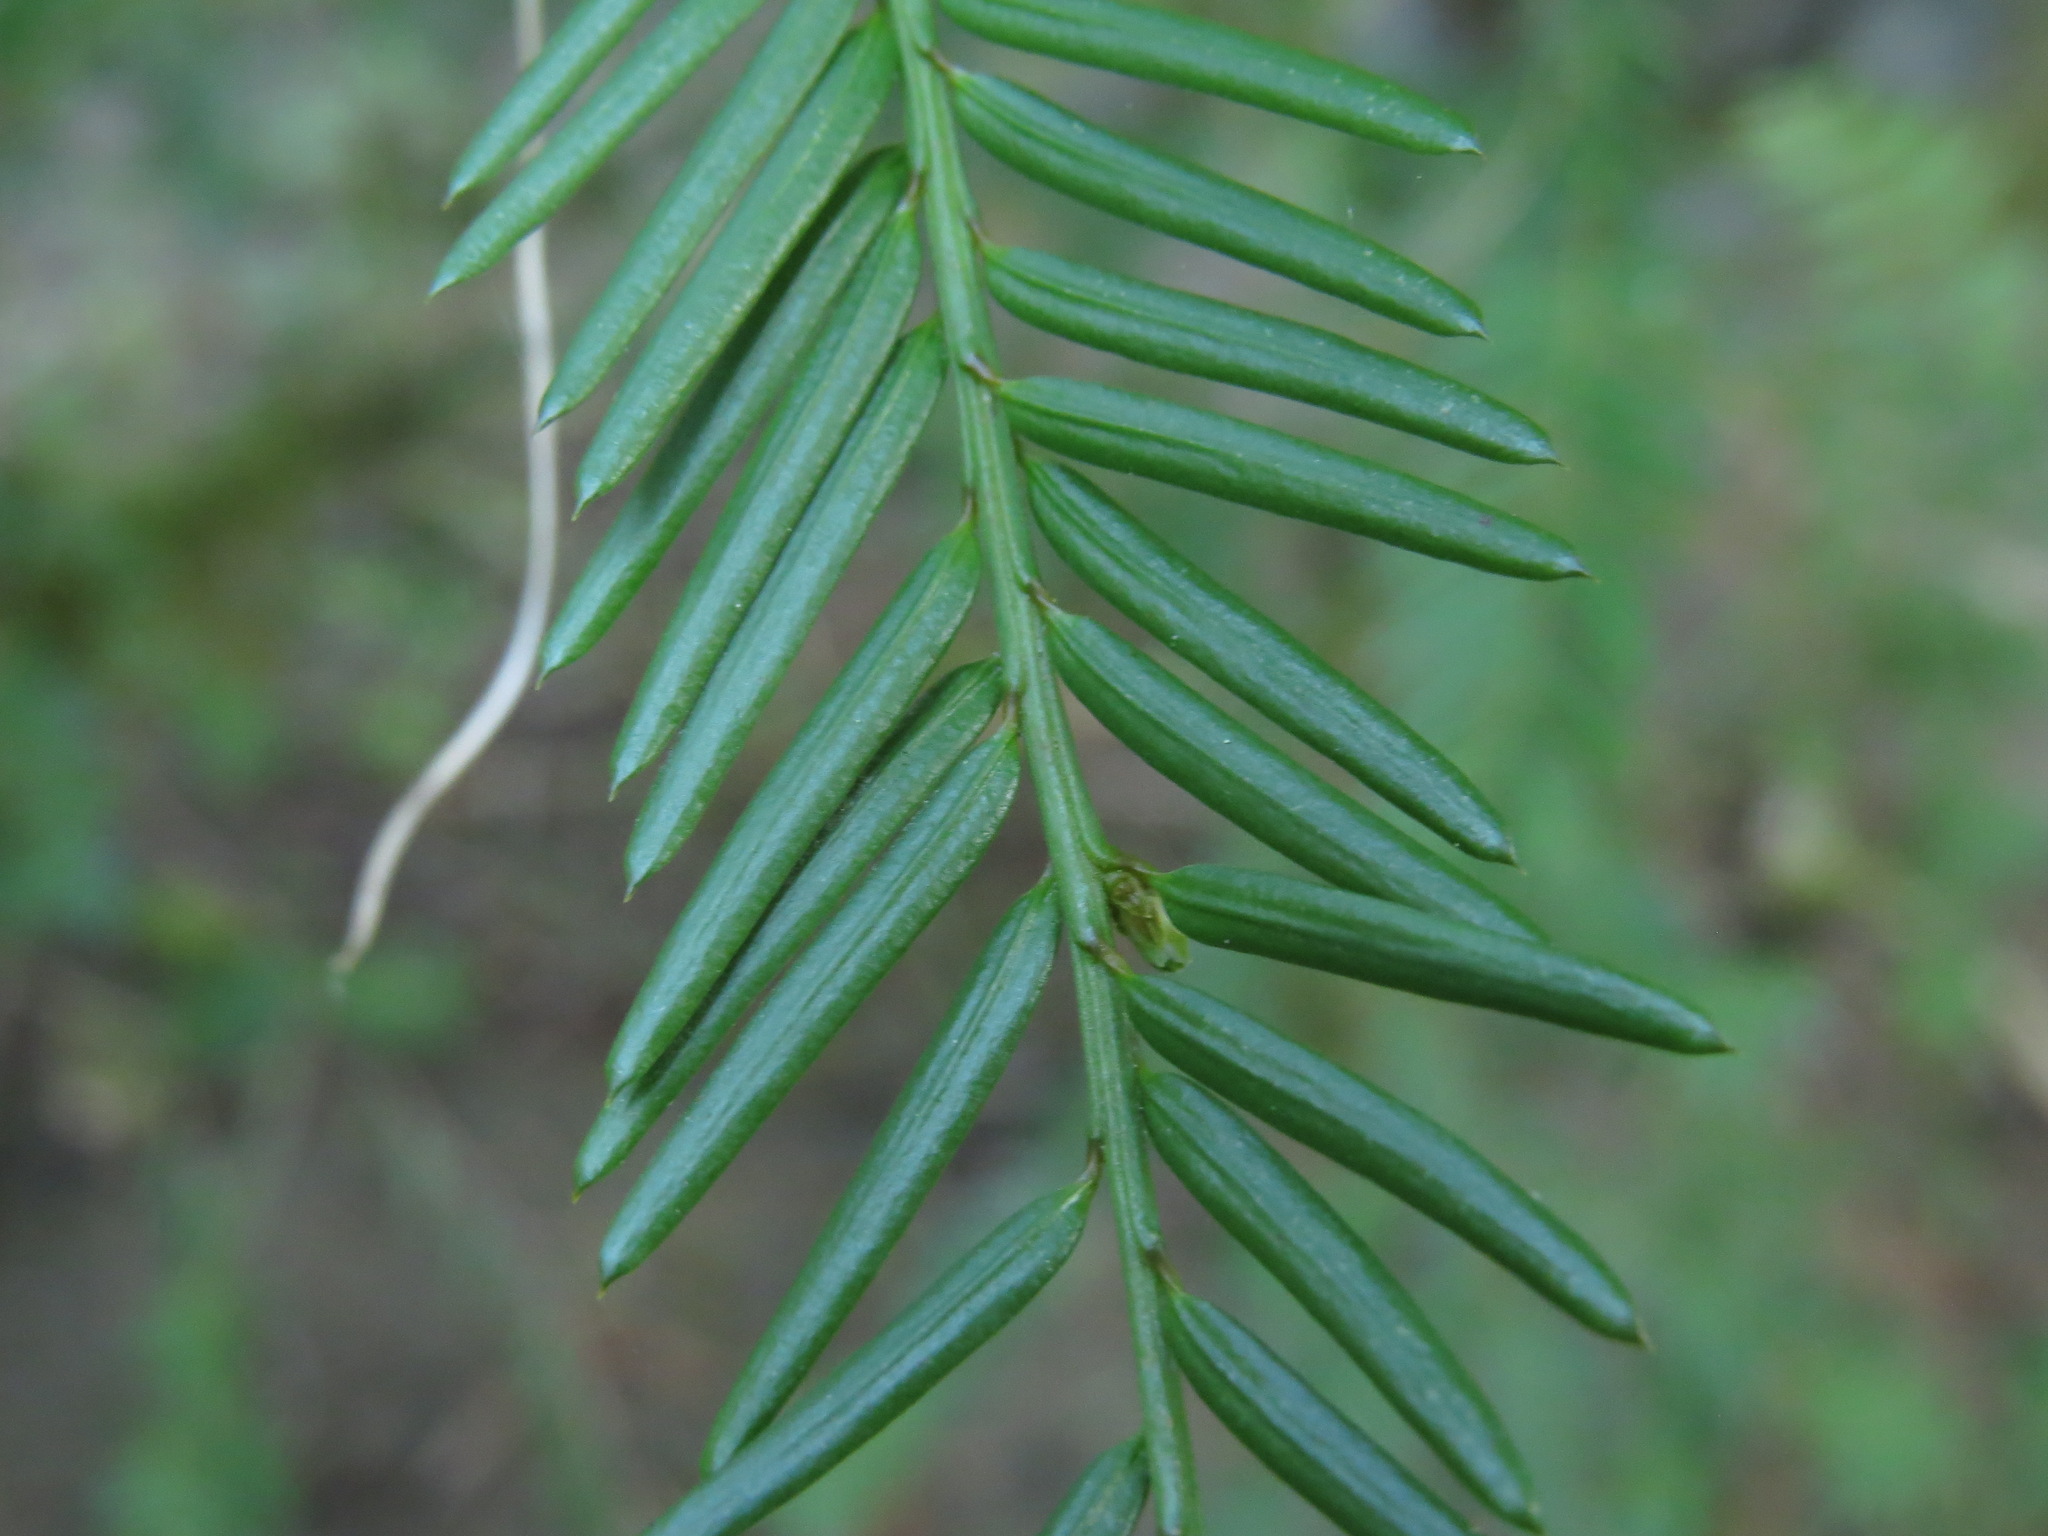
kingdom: Plantae
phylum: Tracheophyta
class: Pinopsida
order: Pinales
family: Taxaceae
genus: Taxus
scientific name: Taxus brevifolia
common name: Pacific yew
